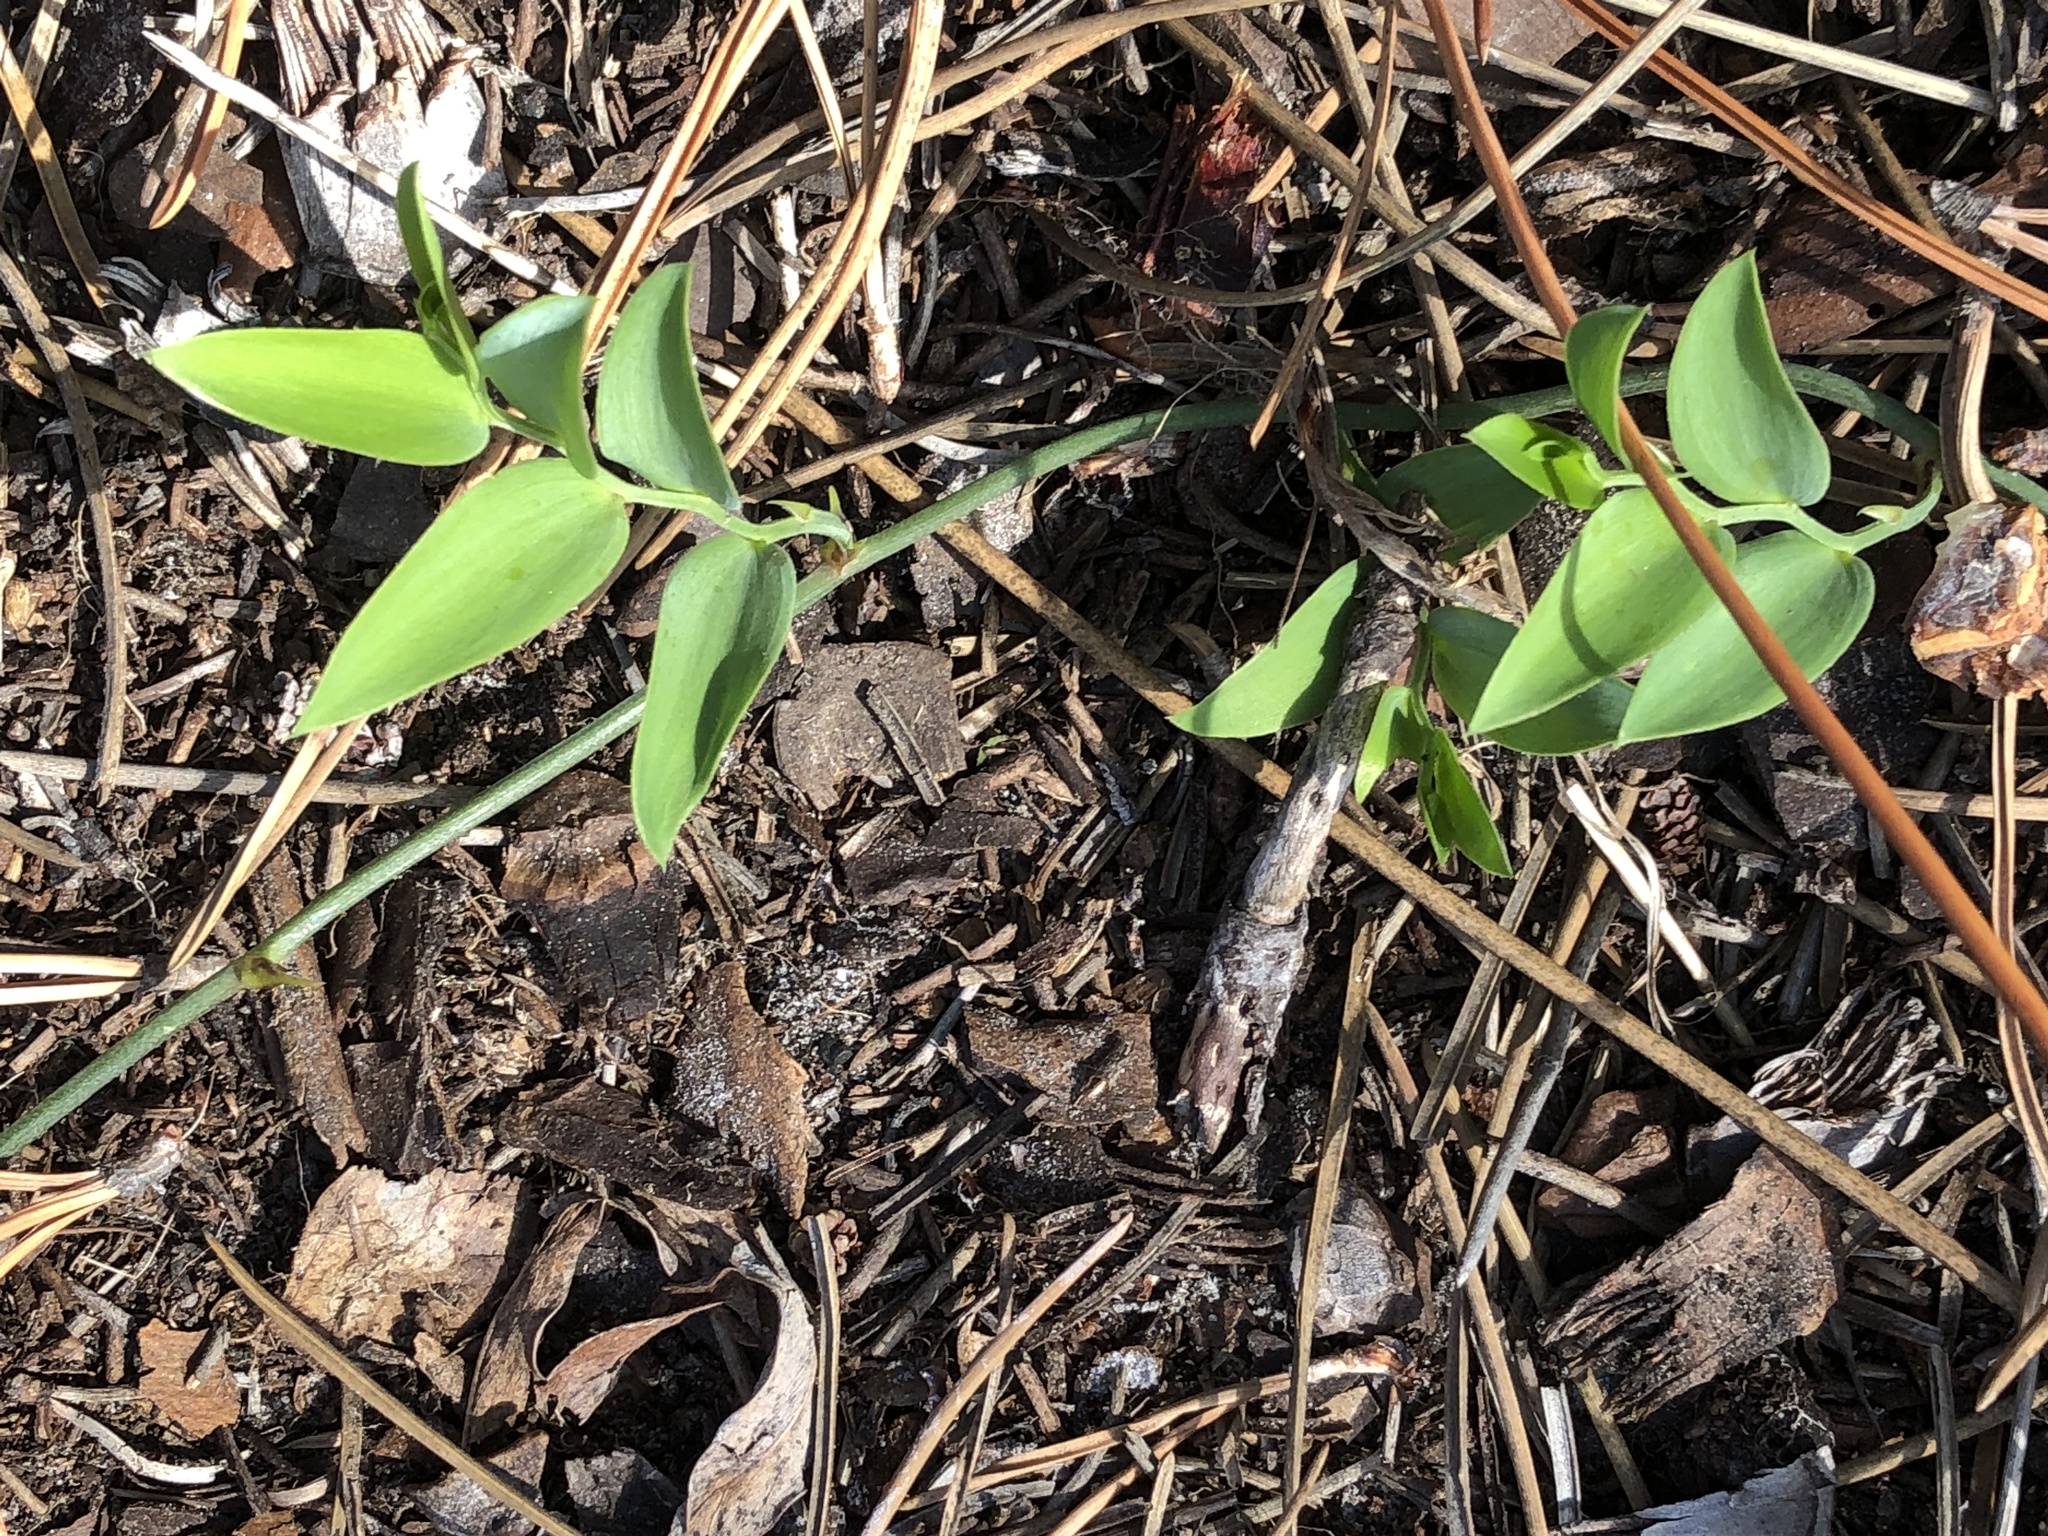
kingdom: Plantae
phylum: Tracheophyta
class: Liliopsida
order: Asparagales
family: Asparagaceae
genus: Asparagus
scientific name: Asparagus asparagoides
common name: African asparagus fern
